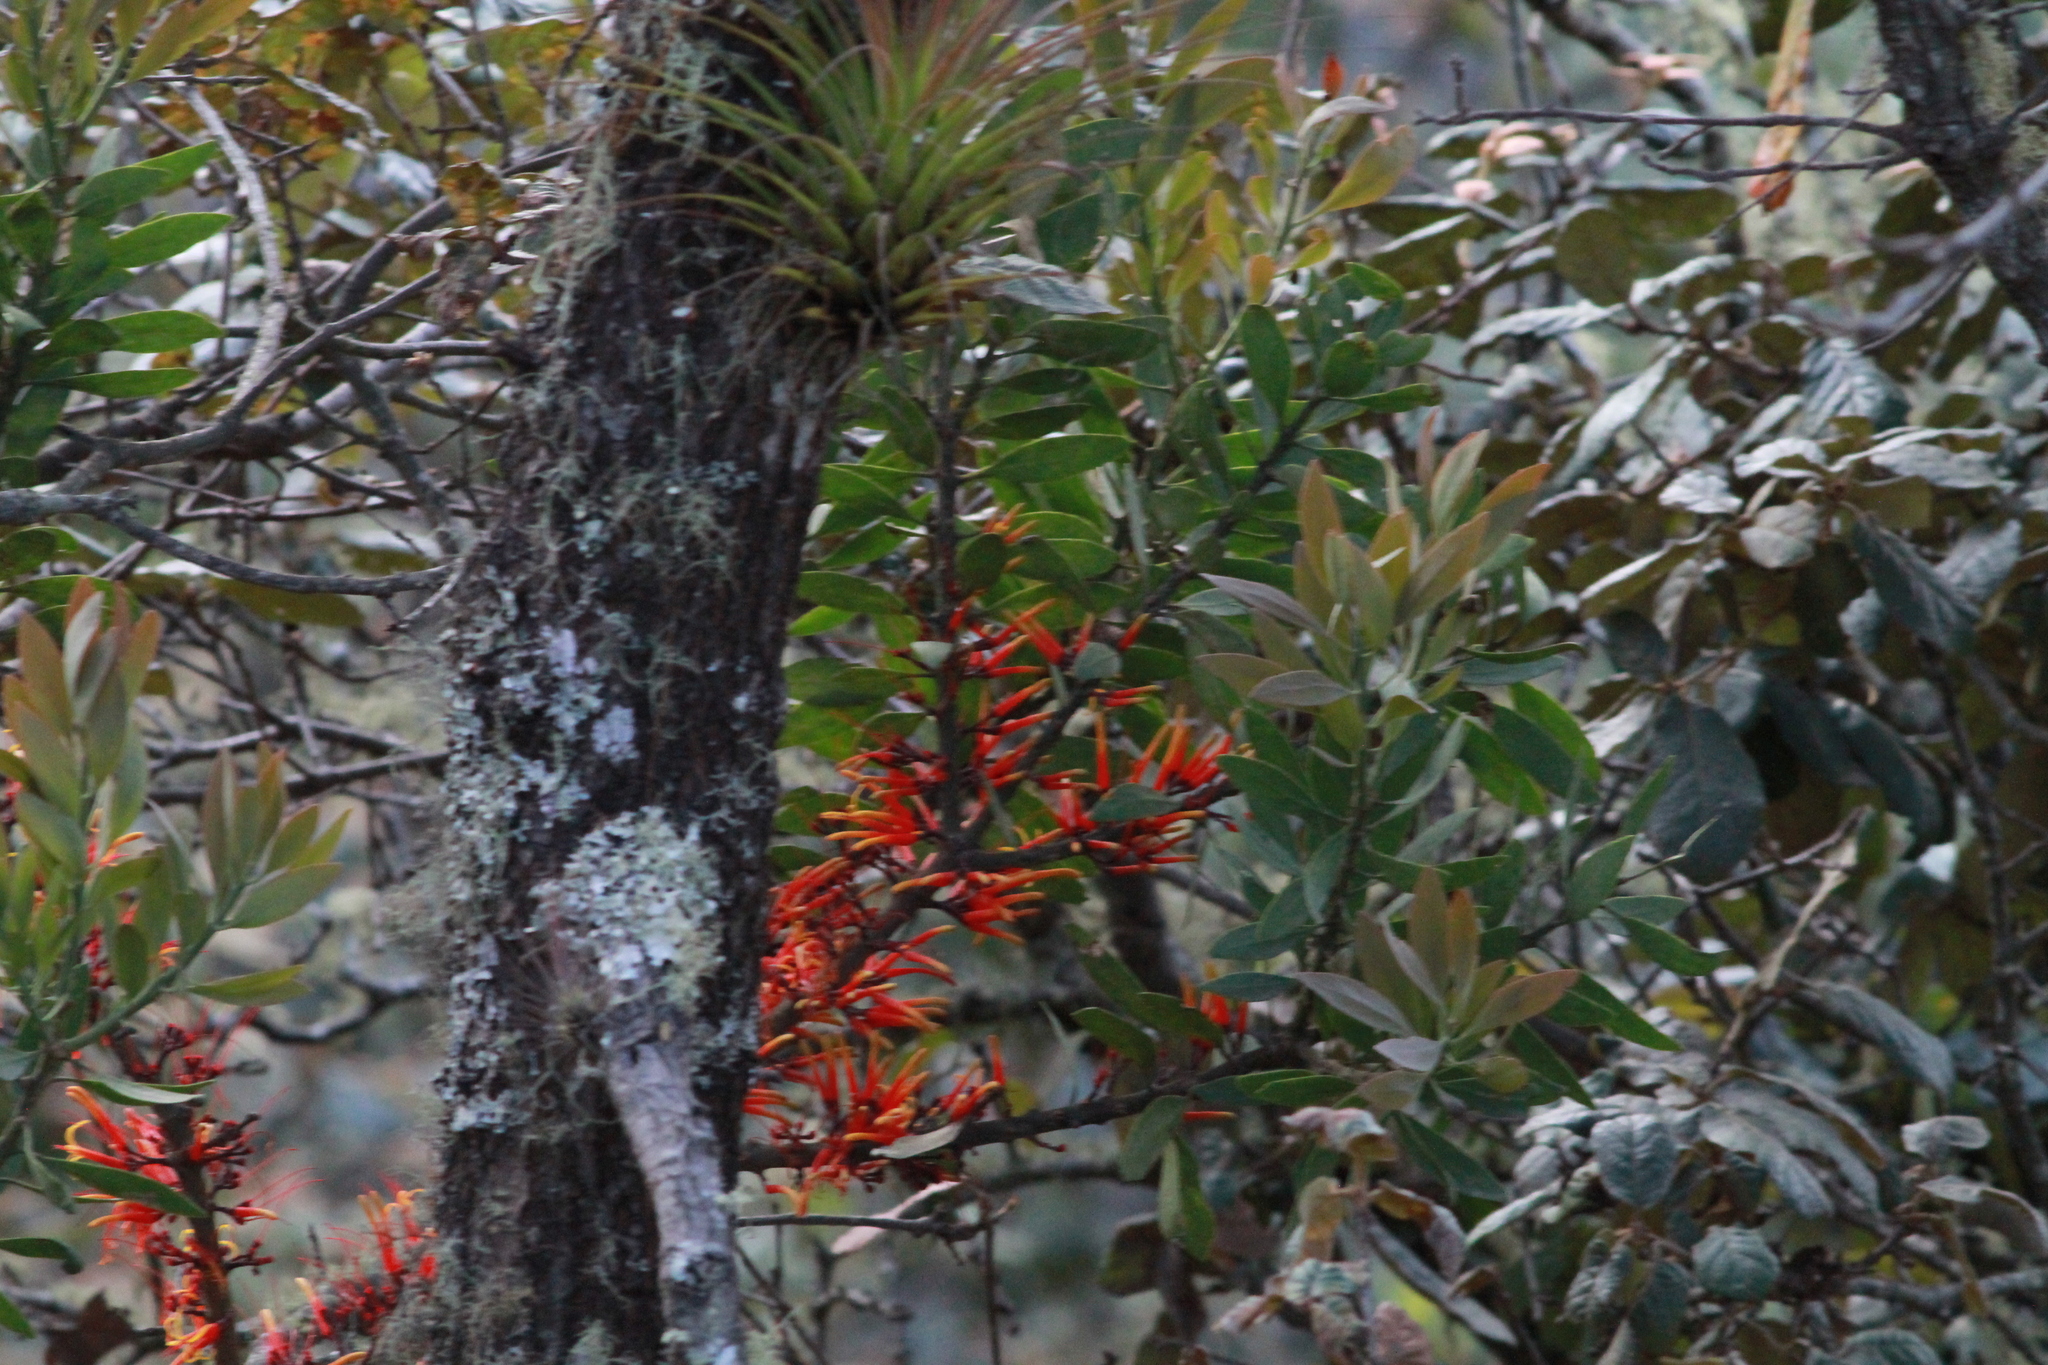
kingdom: Plantae
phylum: Tracheophyta
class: Magnoliopsida
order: Santalales
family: Loranthaceae
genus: Psittacanthus
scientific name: Psittacanthus calyculatus
